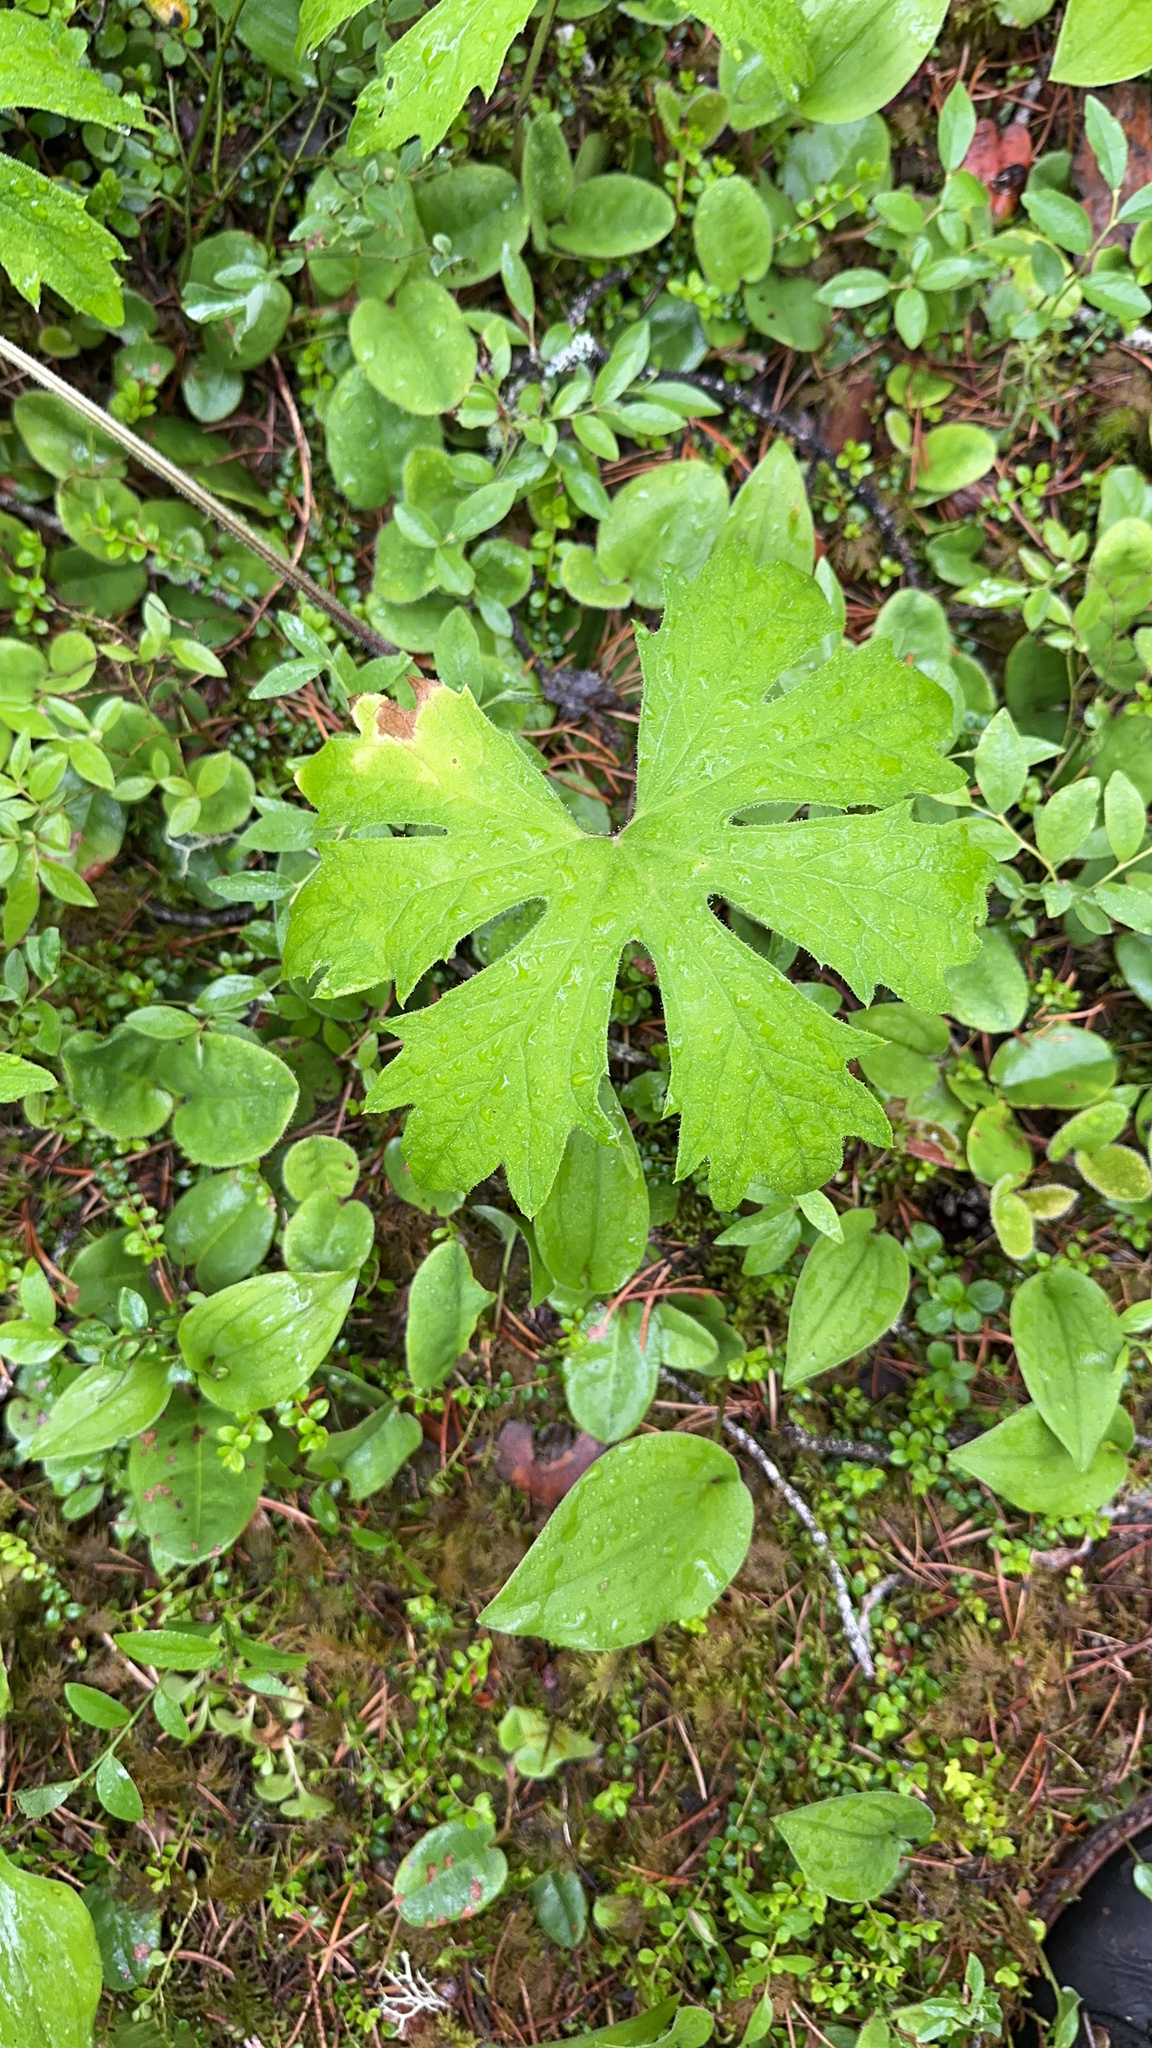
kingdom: Plantae
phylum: Tracheophyta
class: Magnoliopsida
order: Asterales
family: Asteraceae
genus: Petasites
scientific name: Petasites frigidus
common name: Arctic butterbur
